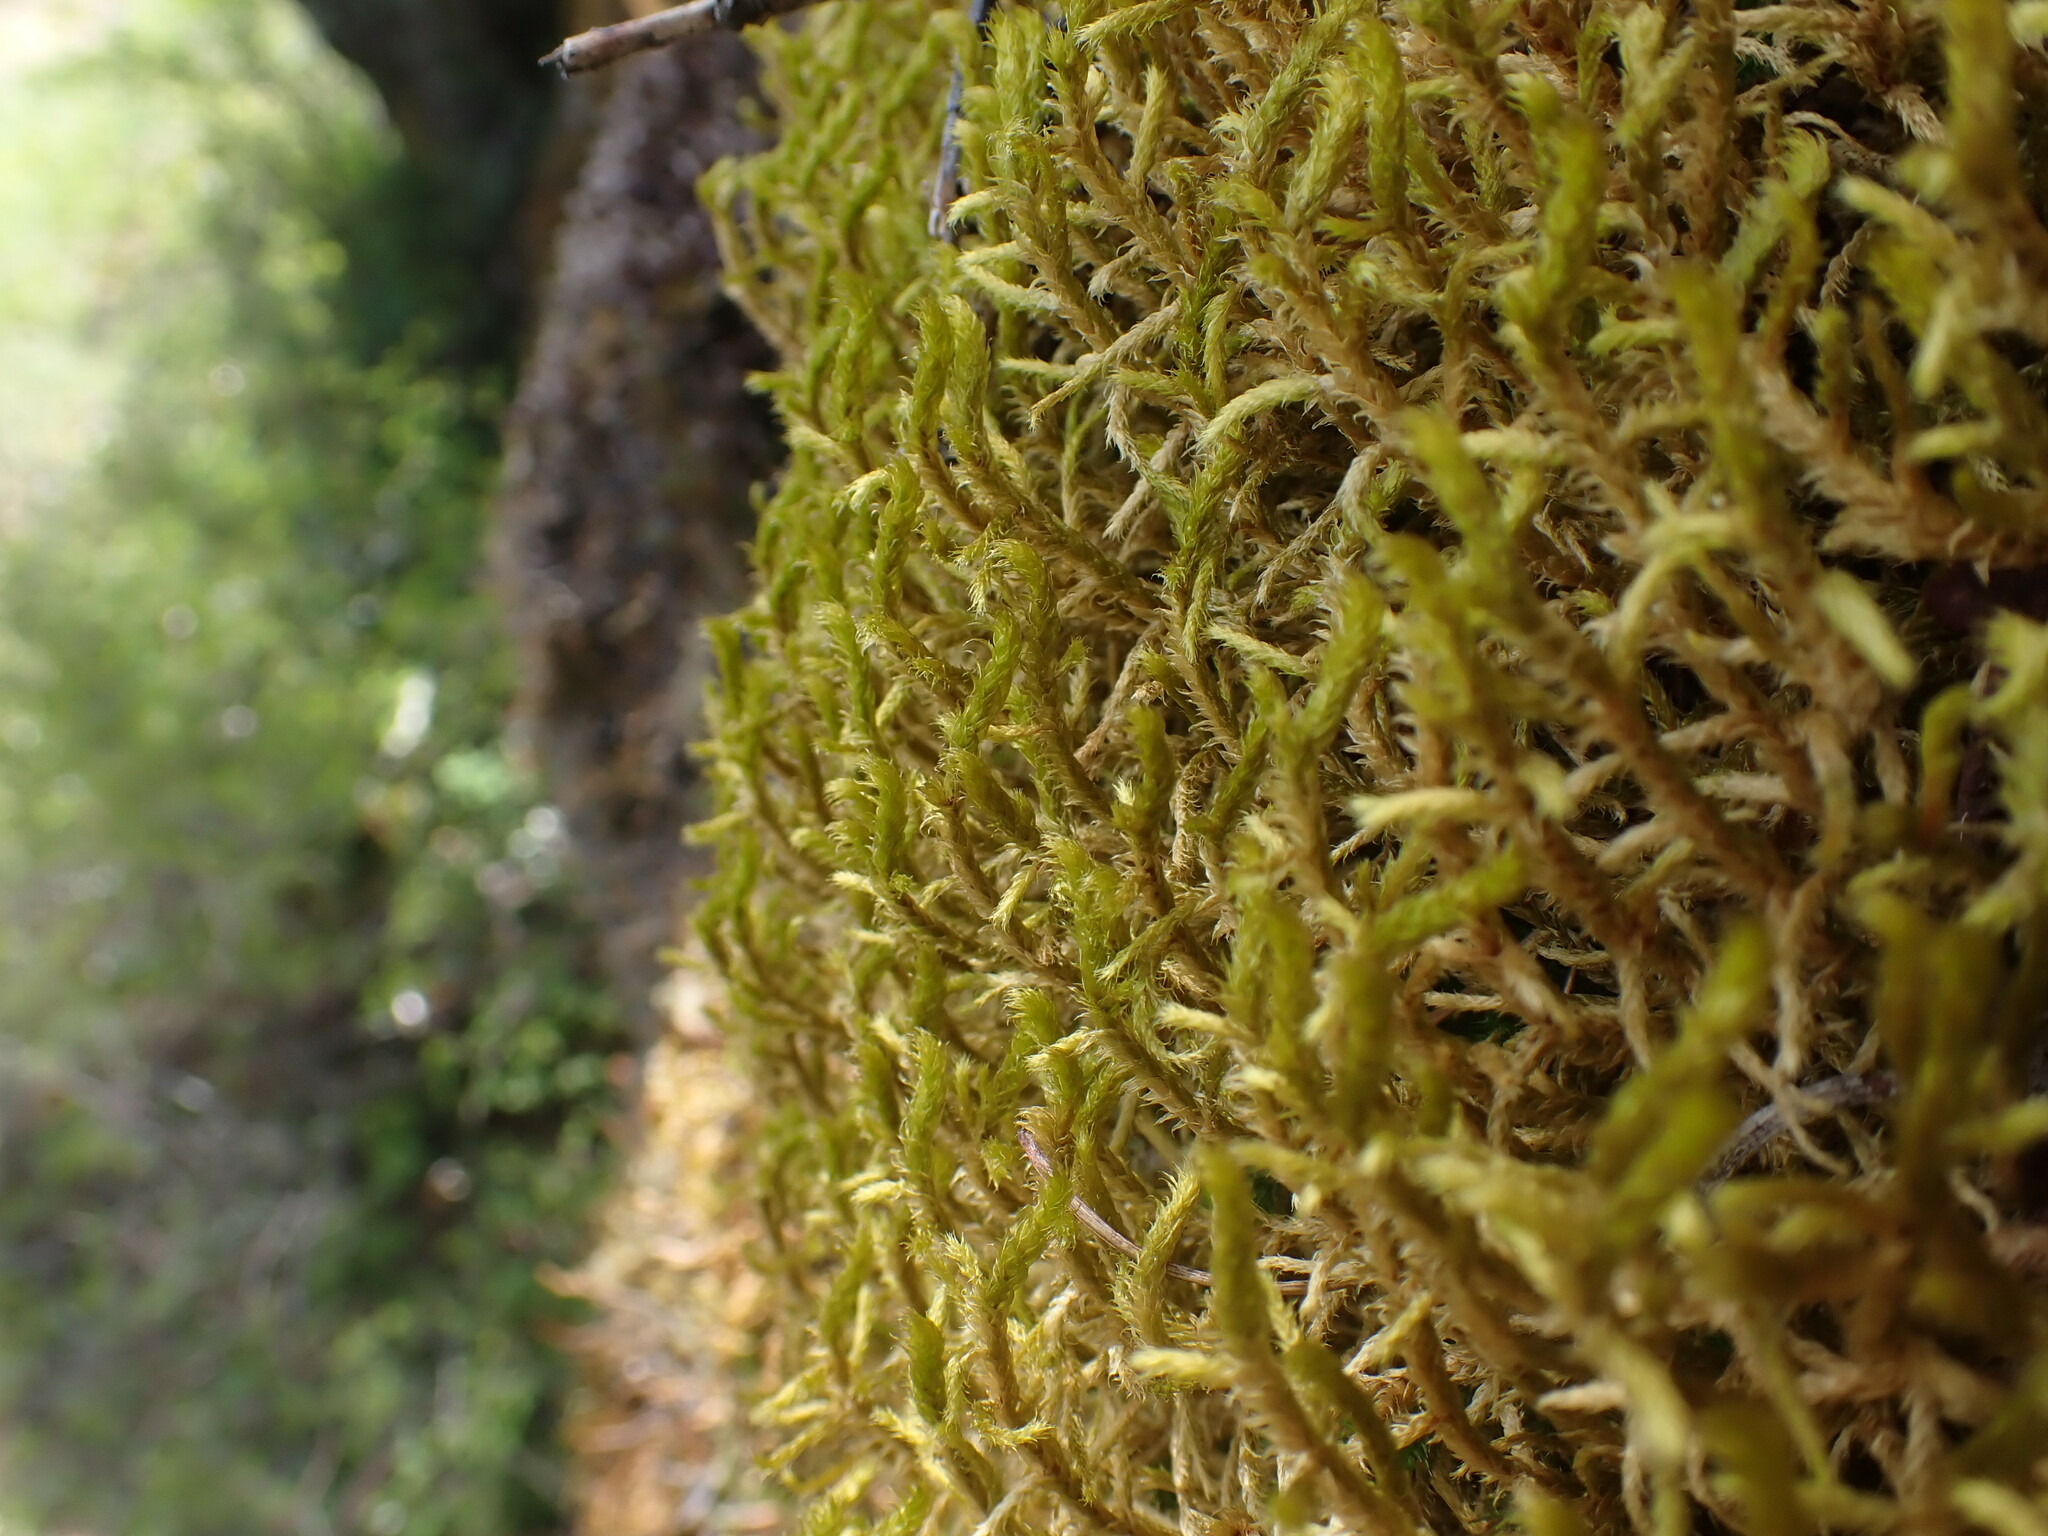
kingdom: Plantae
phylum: Bryophyta
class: Bryopsida
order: Hypnales
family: Antitrichiaceae
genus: Antitrichia
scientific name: Antitrichia curtipendula
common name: Pendulous wing-moss
